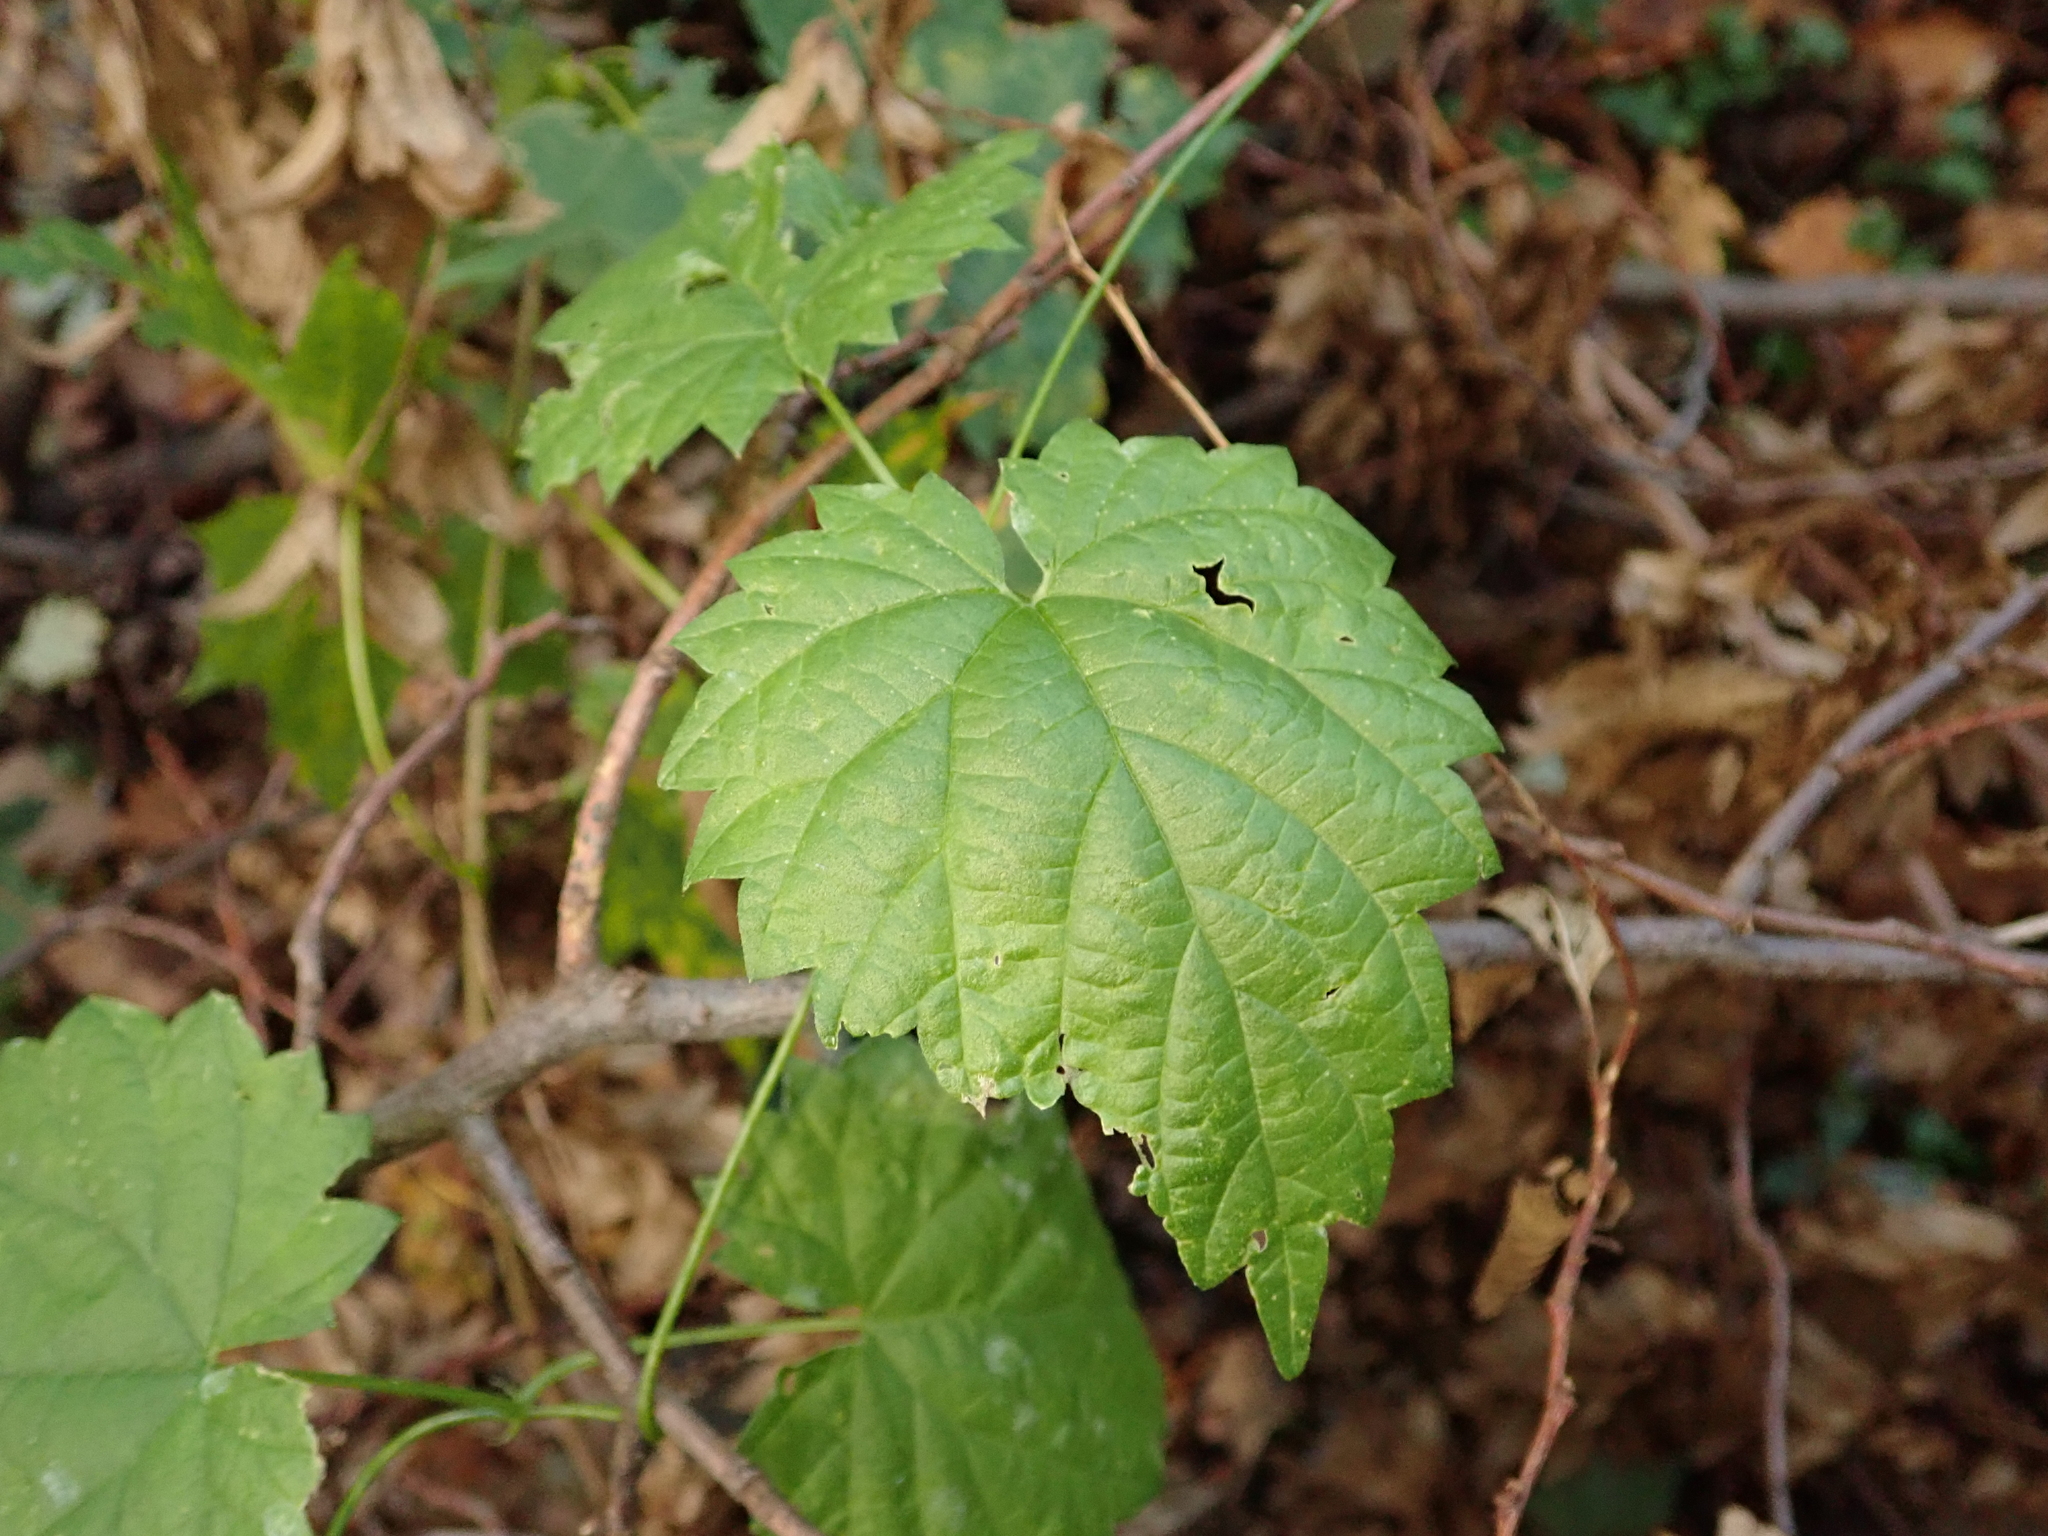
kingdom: Plantae
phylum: Tracheophyta
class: Magnoliopsida
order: Rosales
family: Cannabaceae
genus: Humulus
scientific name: Humulus lupulus
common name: Hop
